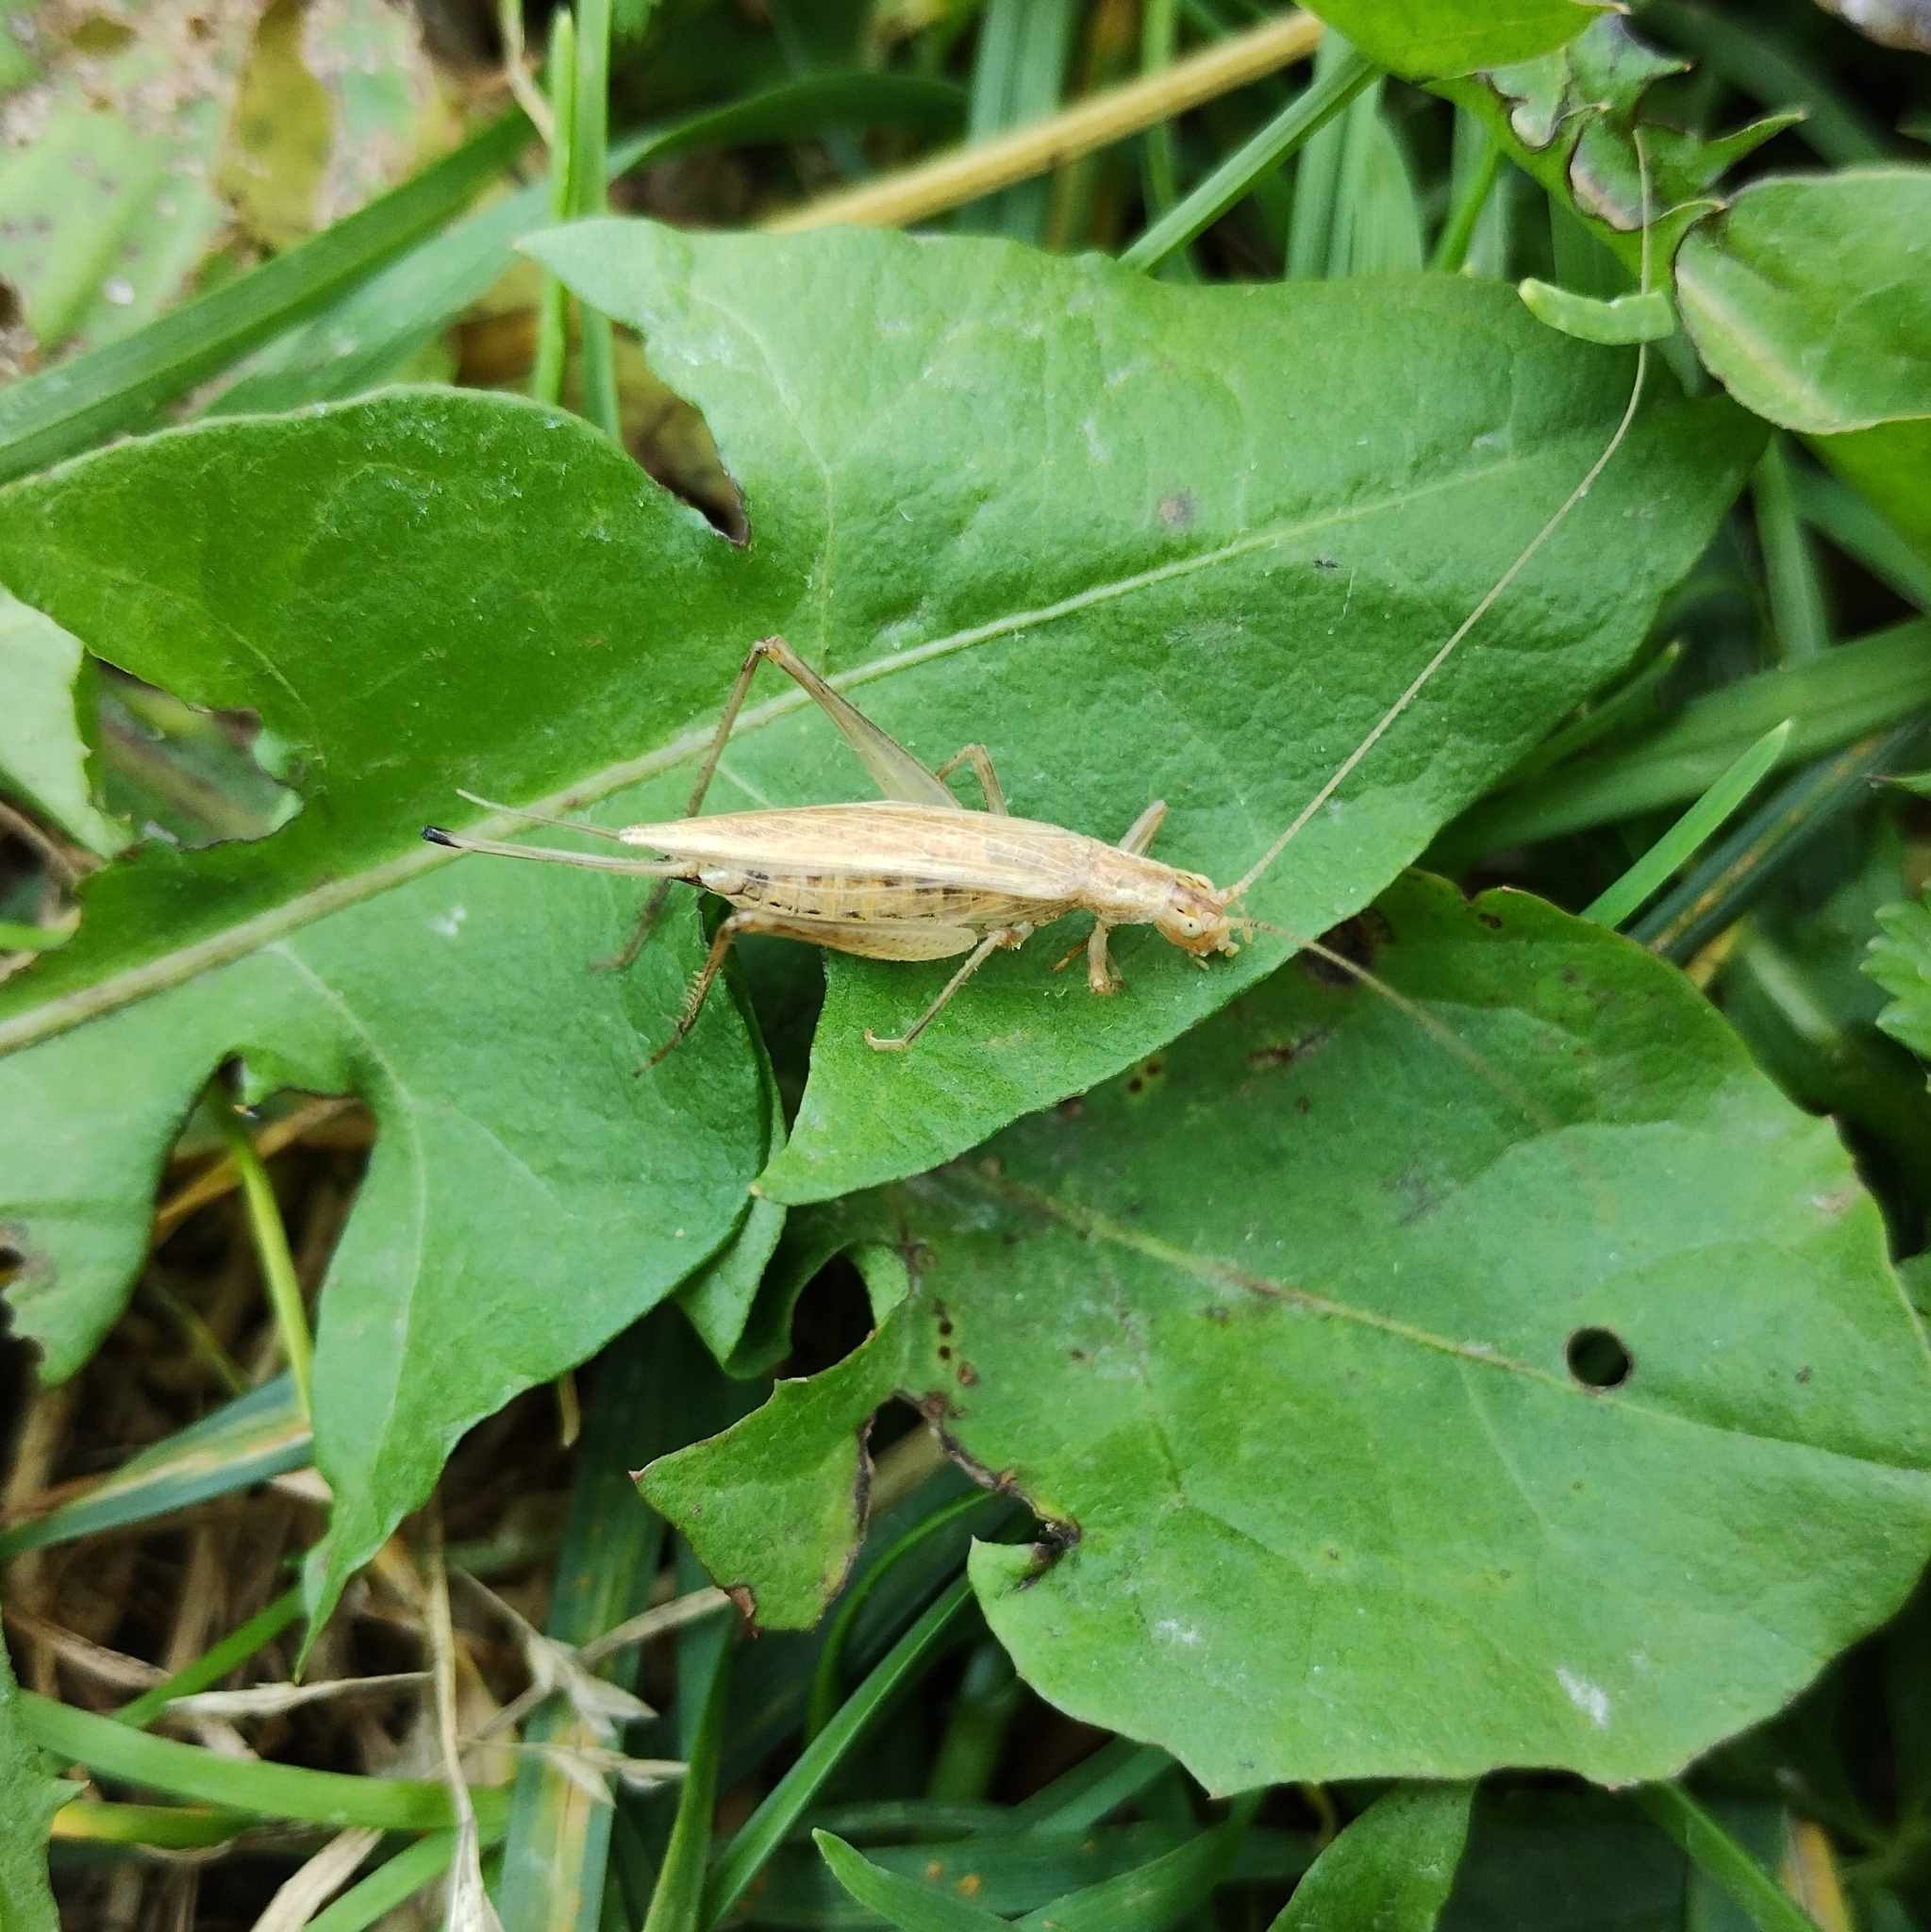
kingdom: Animalia
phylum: Arthropoda
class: Insecta
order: Orthoptera
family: Gryllidae
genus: Oecanthus
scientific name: Oecanthus pellucens
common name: Tree-cricket
